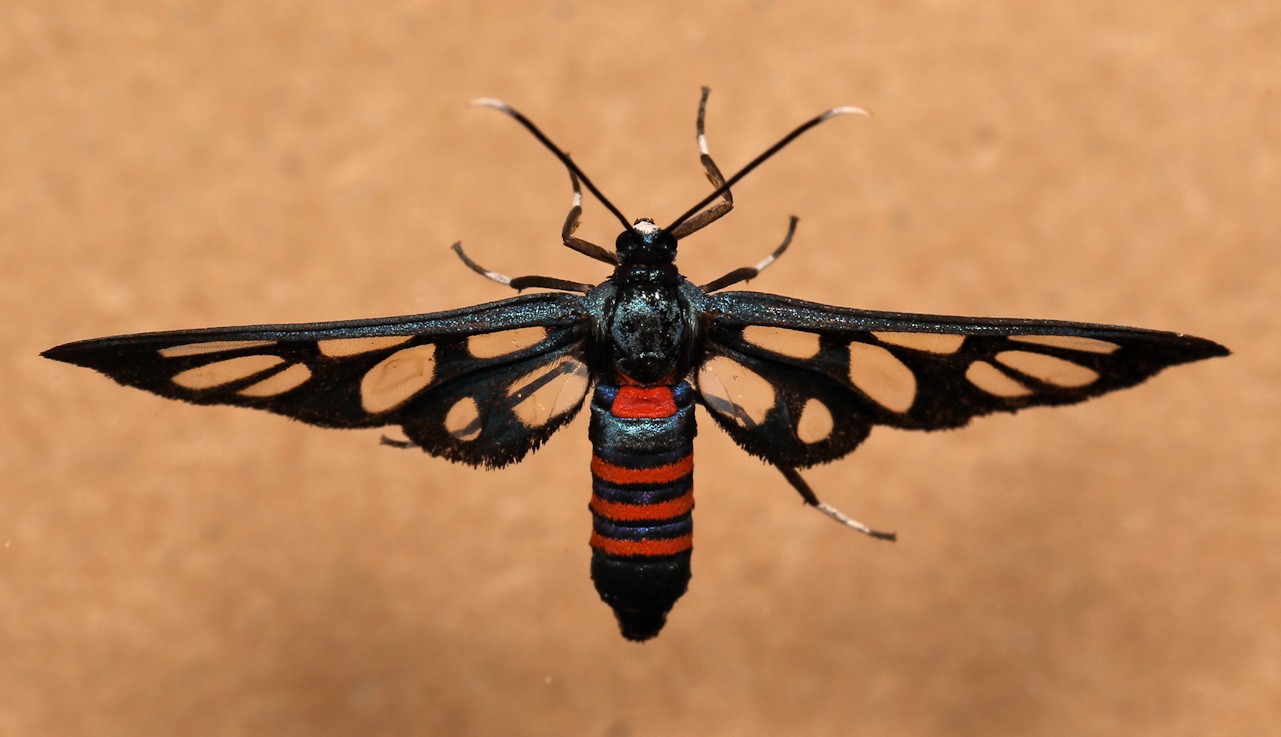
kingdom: Animalia
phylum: Arthropoda
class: Insecta
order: Lepidoptera
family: Erebidae
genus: Amata
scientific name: Amata cerbera
